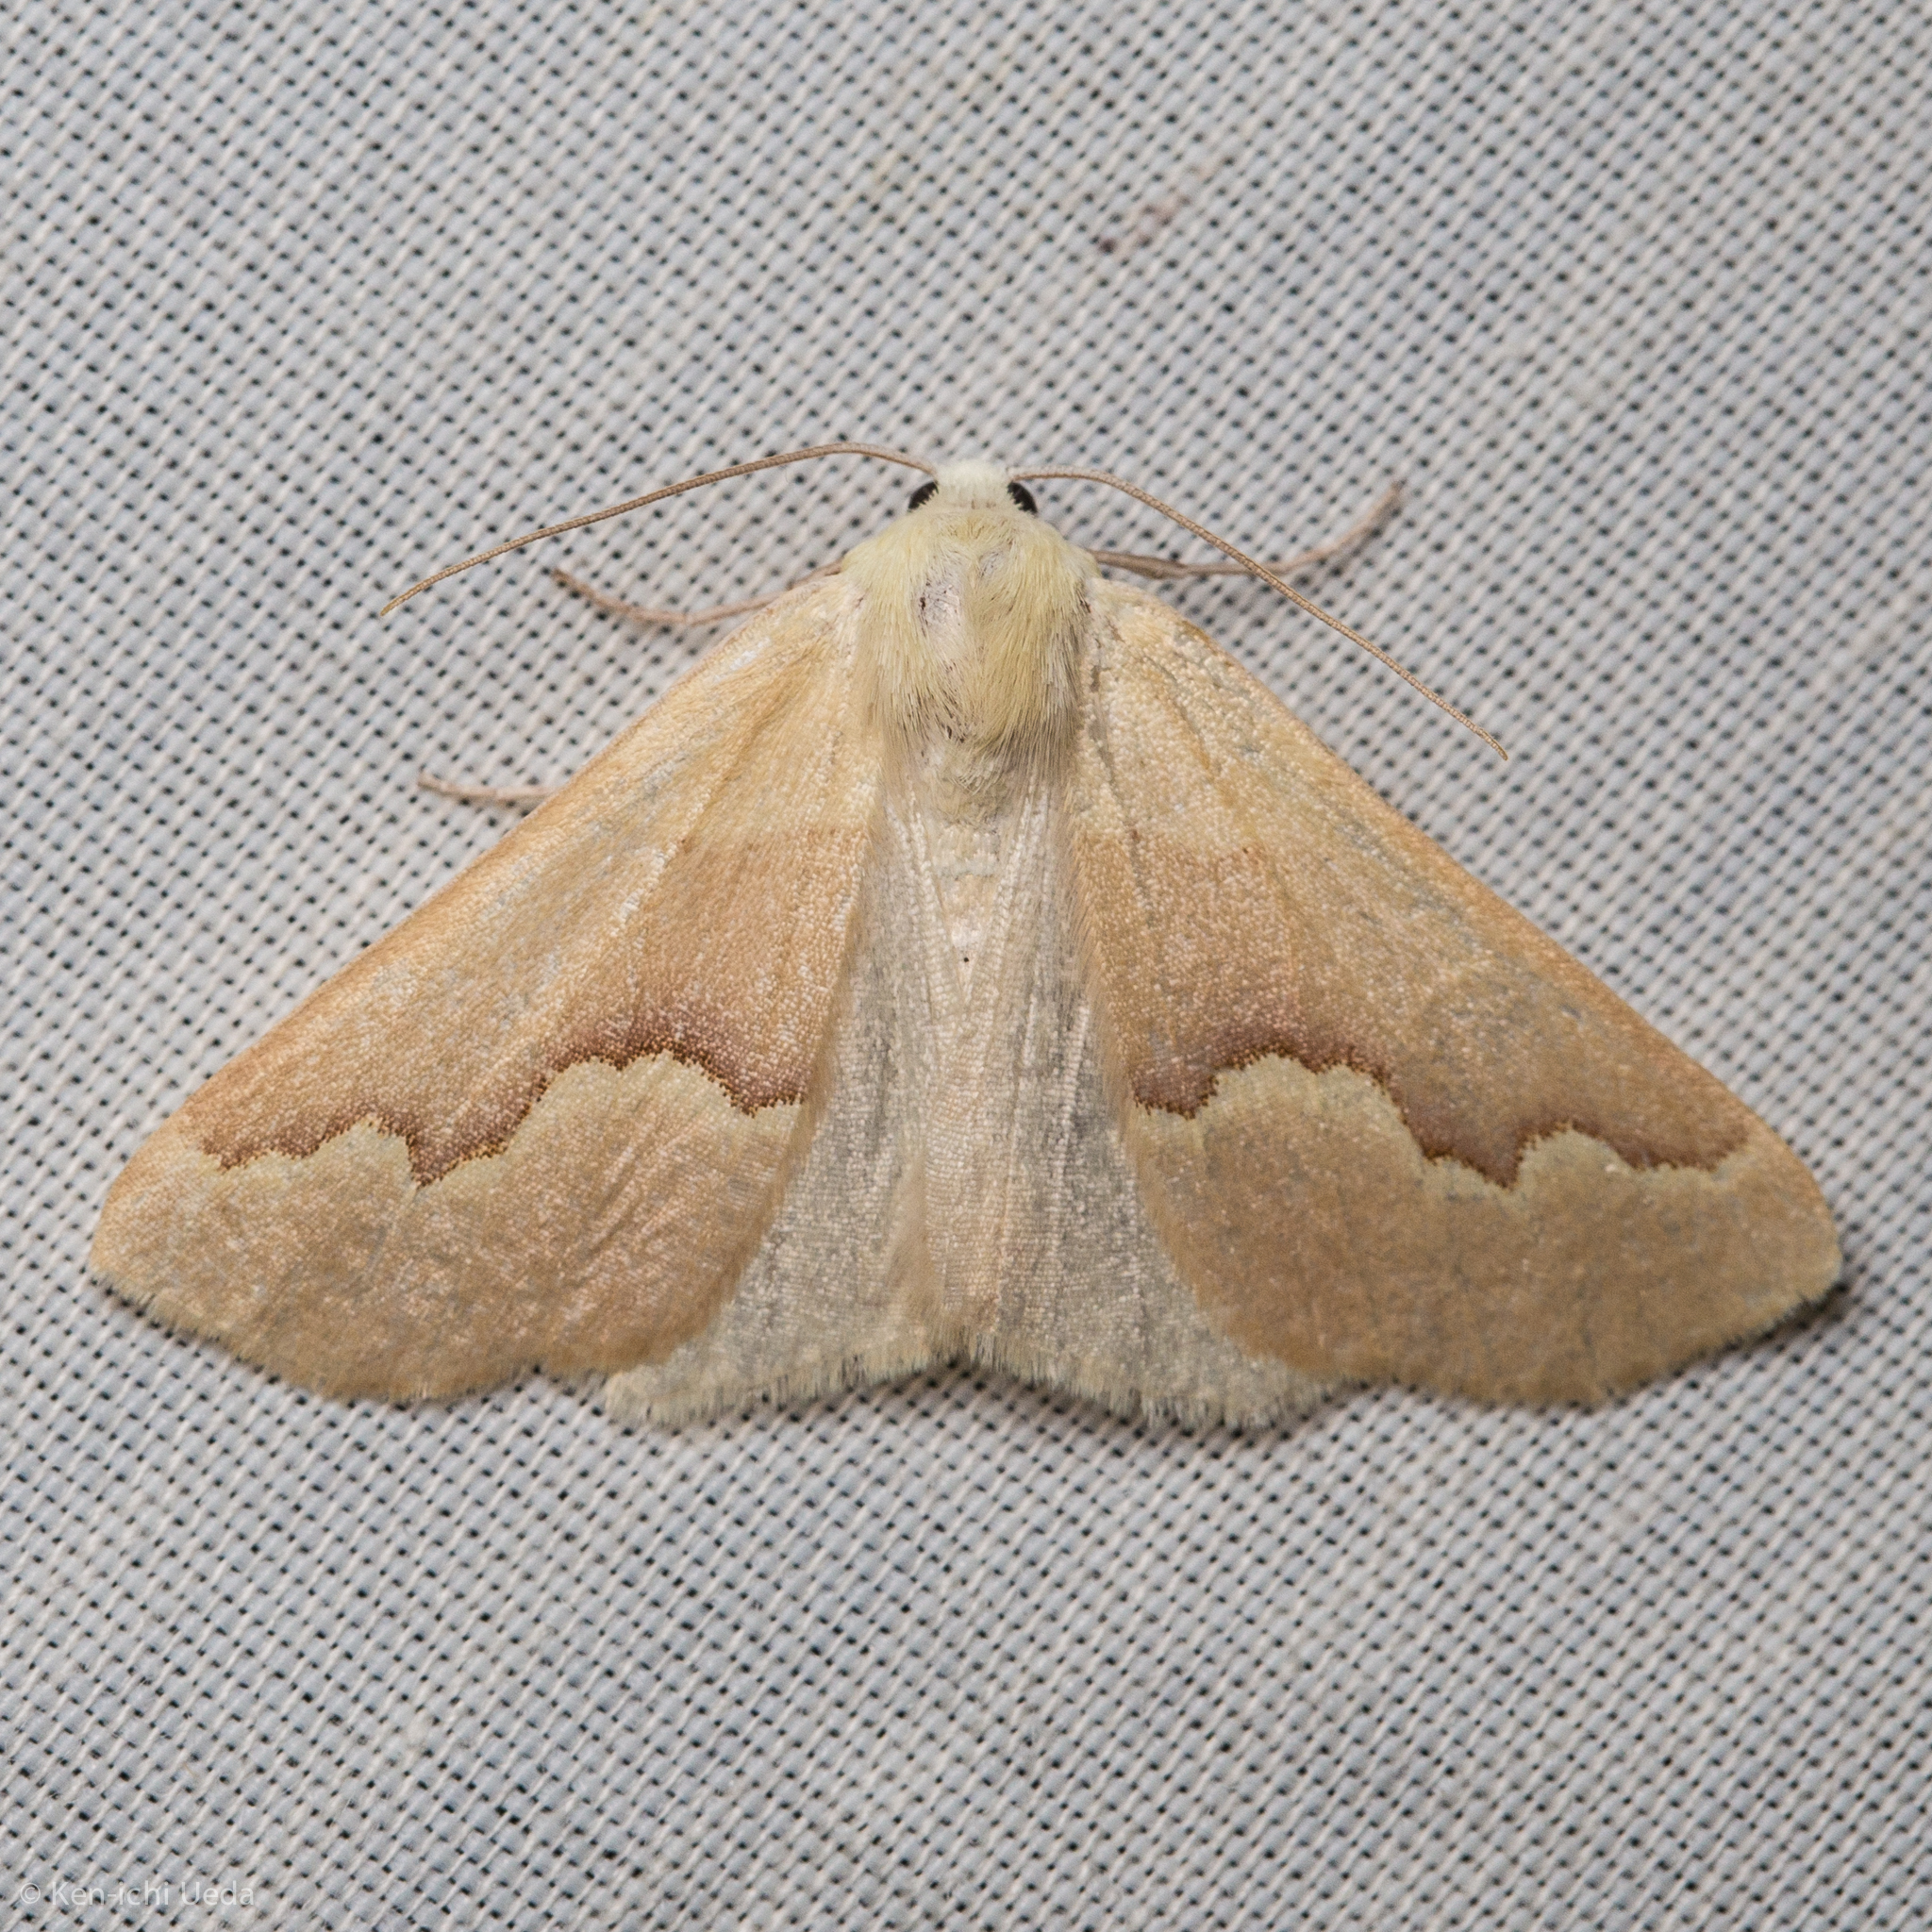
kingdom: Animalia
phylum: Arthropoda
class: Insecta
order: Lepidoptera
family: Geometridae
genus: Sabulodes
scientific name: Sabulodes spoliata
